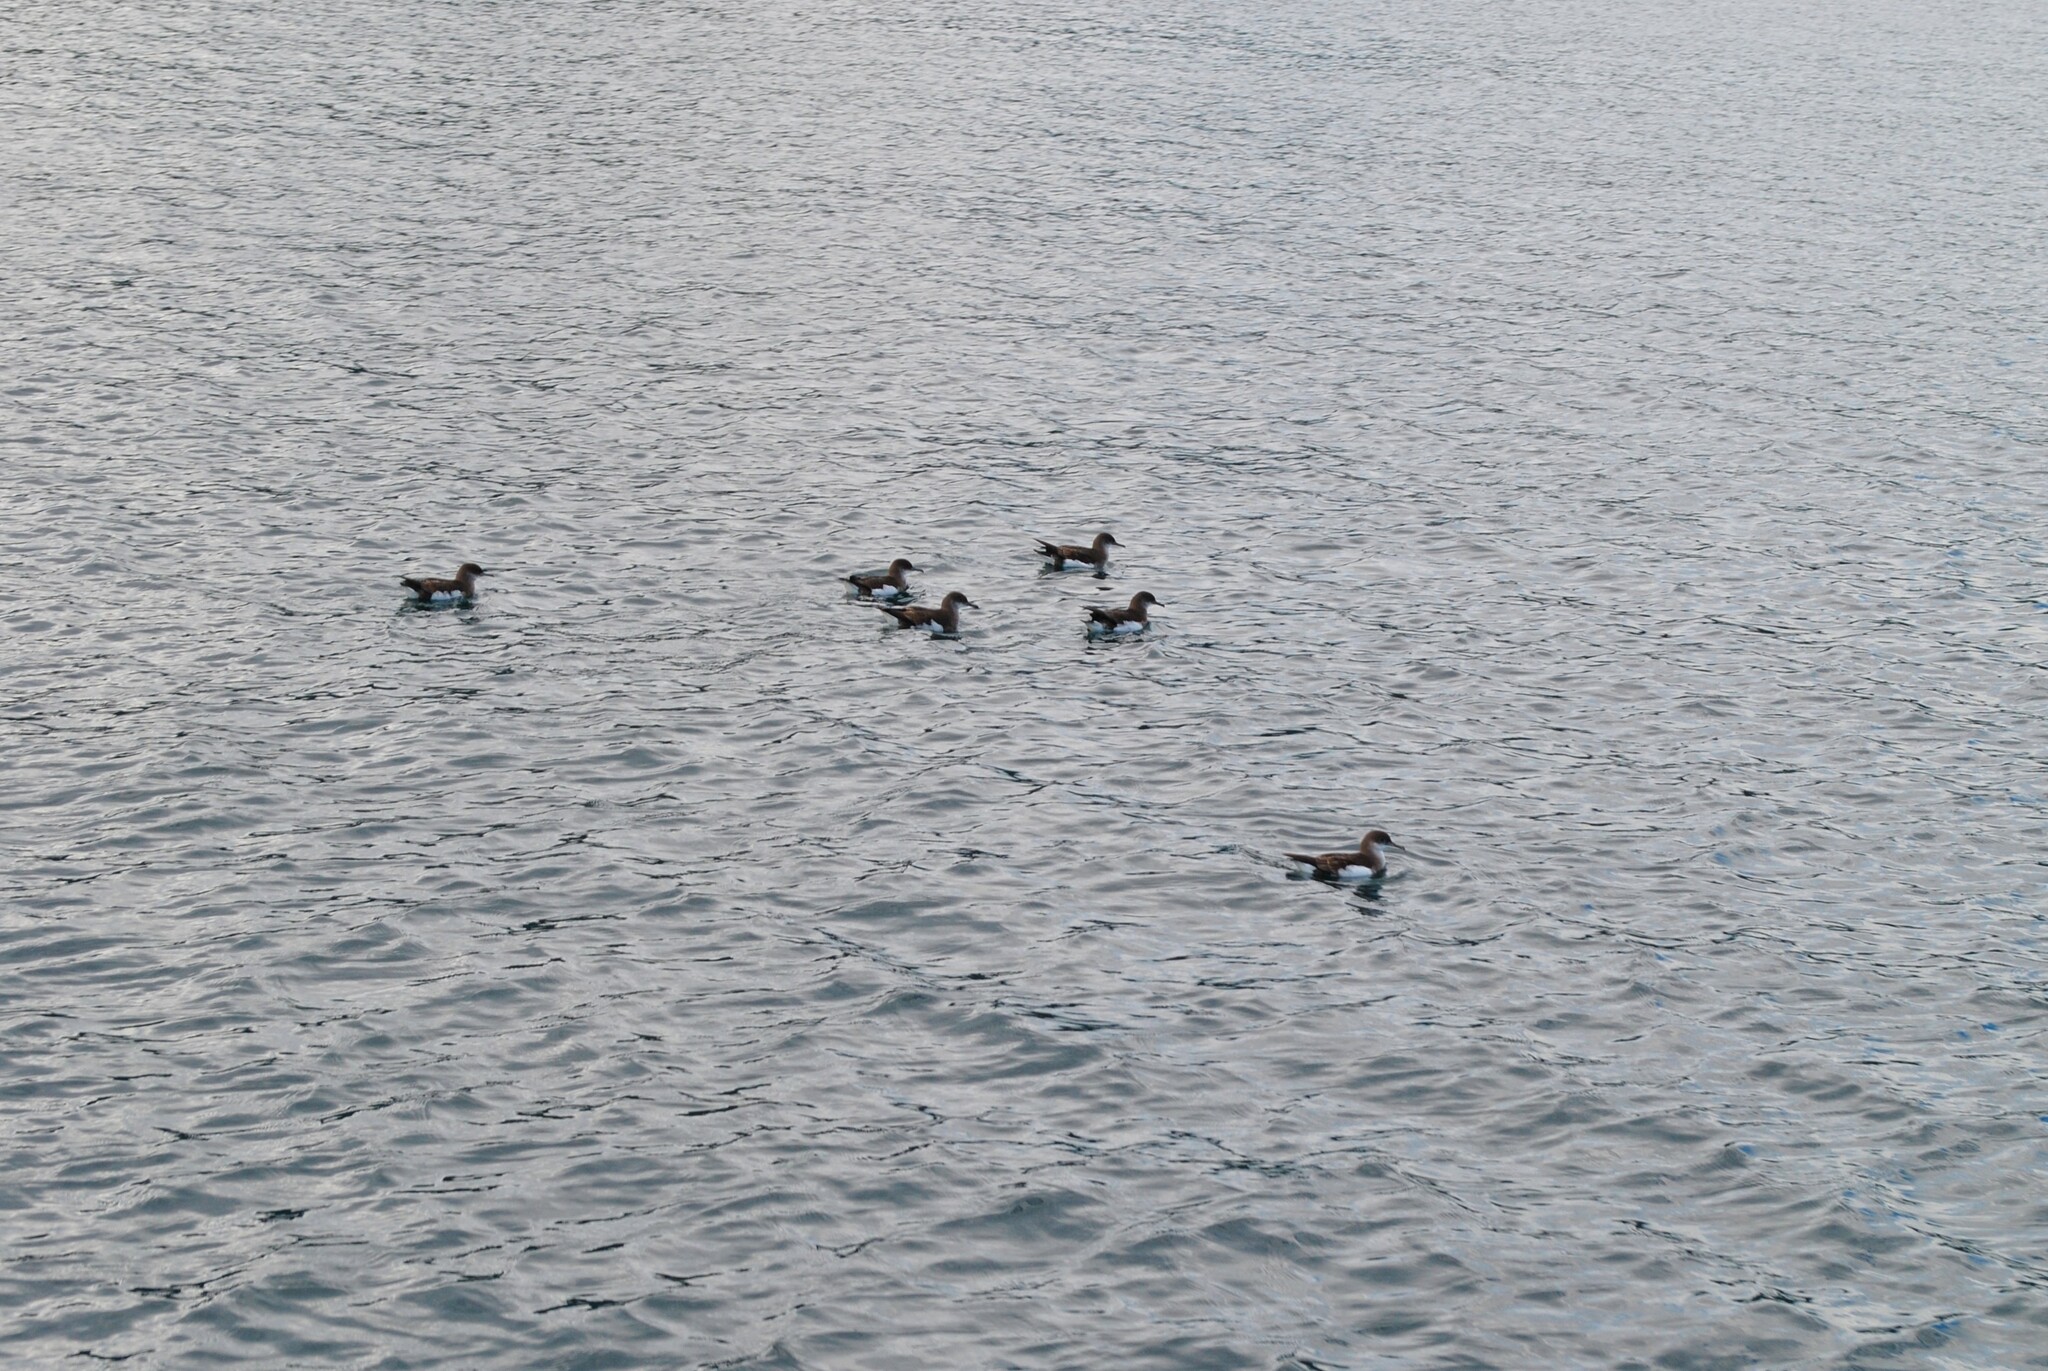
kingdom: Animalia
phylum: Chordata
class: Aves
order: Procellariiformes
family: Procellariidae
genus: Puffinus
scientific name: Puffinus gavia
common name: Fluttering shearwater
